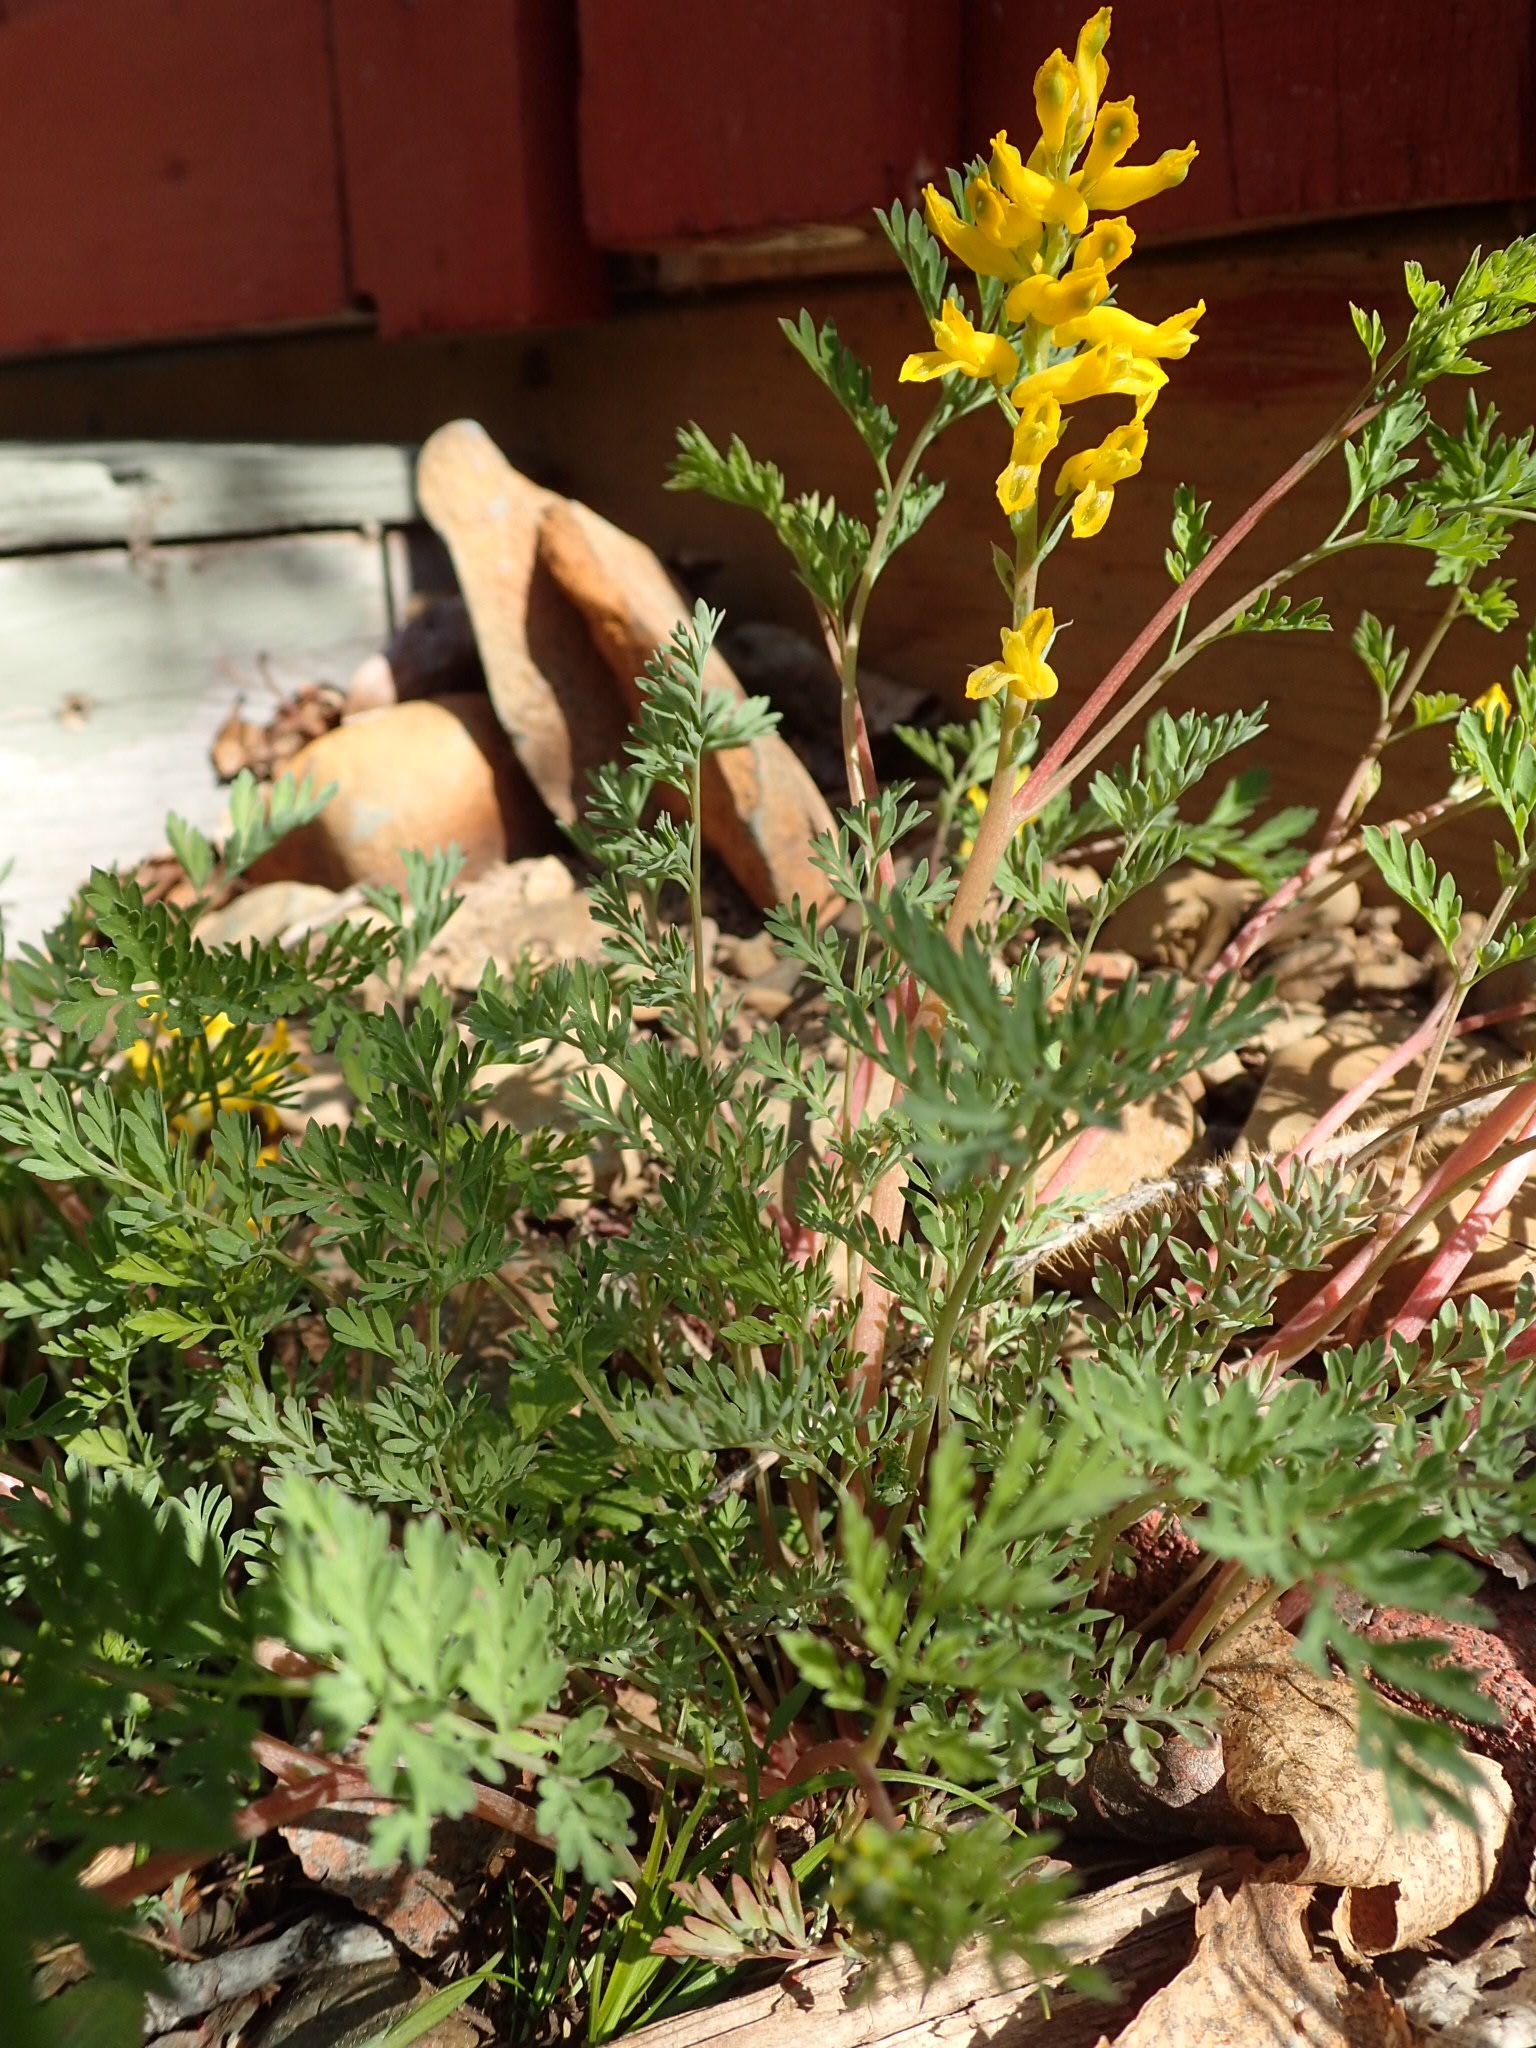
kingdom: Plantae
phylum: Tracheophyta
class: Magnoliopsida
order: Ranunculales
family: Papaveraceae
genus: Corydalis
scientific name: Corydalis aurea
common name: Golden corydalis
